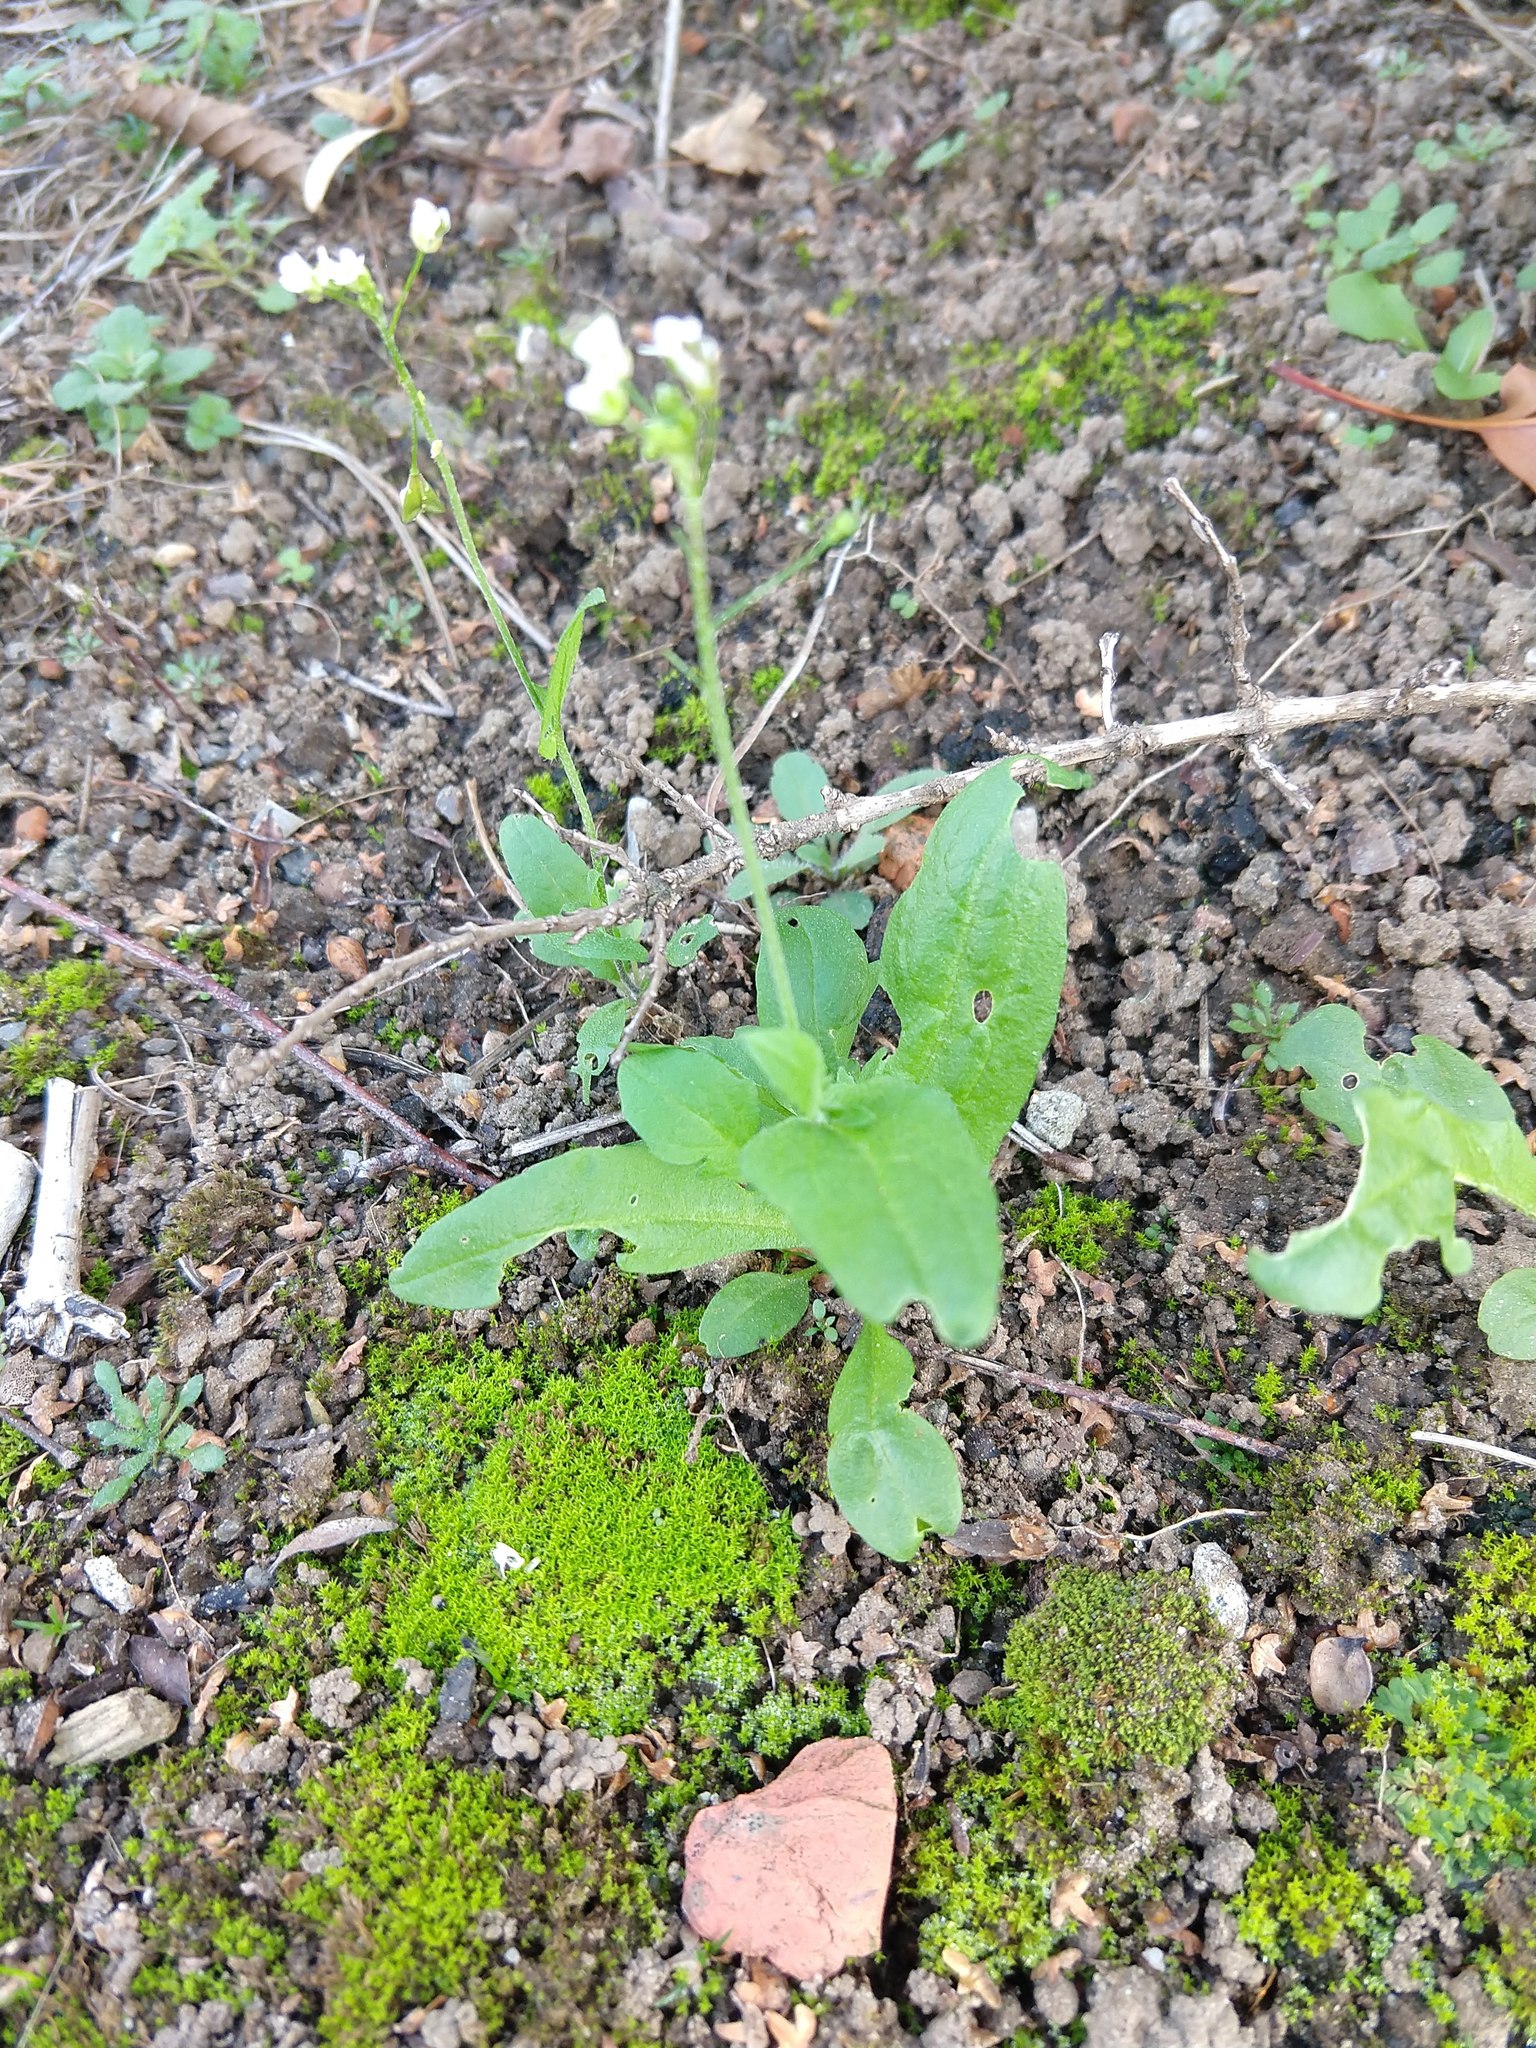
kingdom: Plantae
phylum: Tracheophyta
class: Magnoliopsida
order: Brassicales
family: Brassicaceae
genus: Capsella
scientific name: Capsella bursa-pastoris
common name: Shepherd's purse
